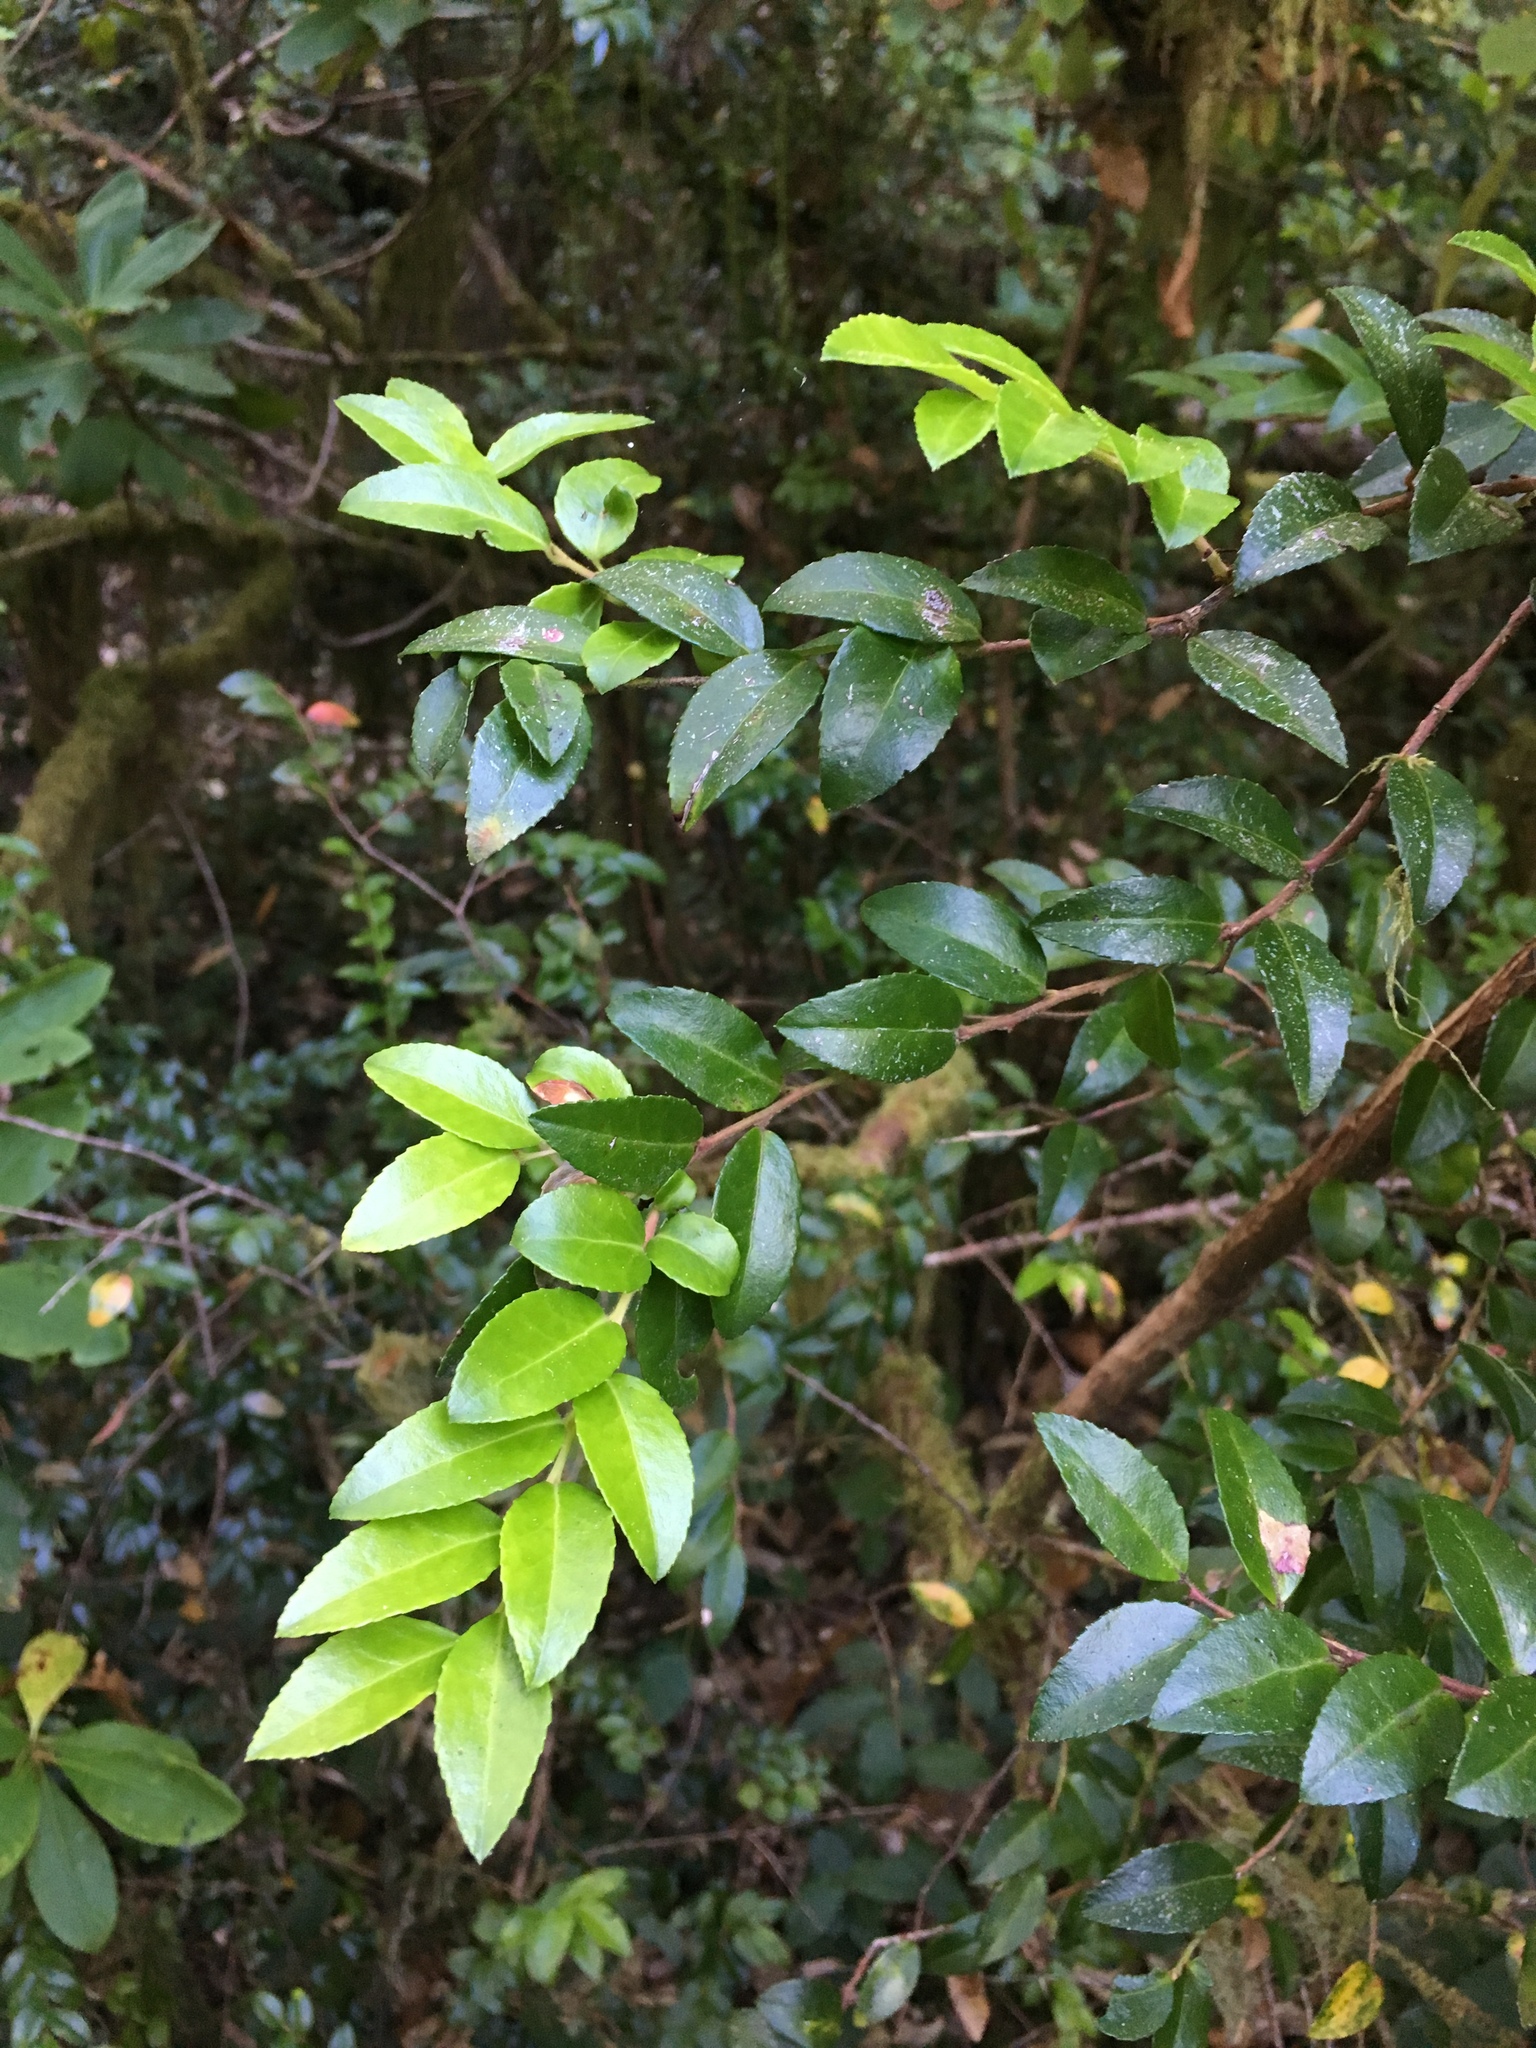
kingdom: Plantae
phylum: Tracheophyta
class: Magnoliopsida
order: Ericales
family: Ericaceae
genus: Vaccinium
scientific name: Vaccinium ovatum
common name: California-huckleberry
